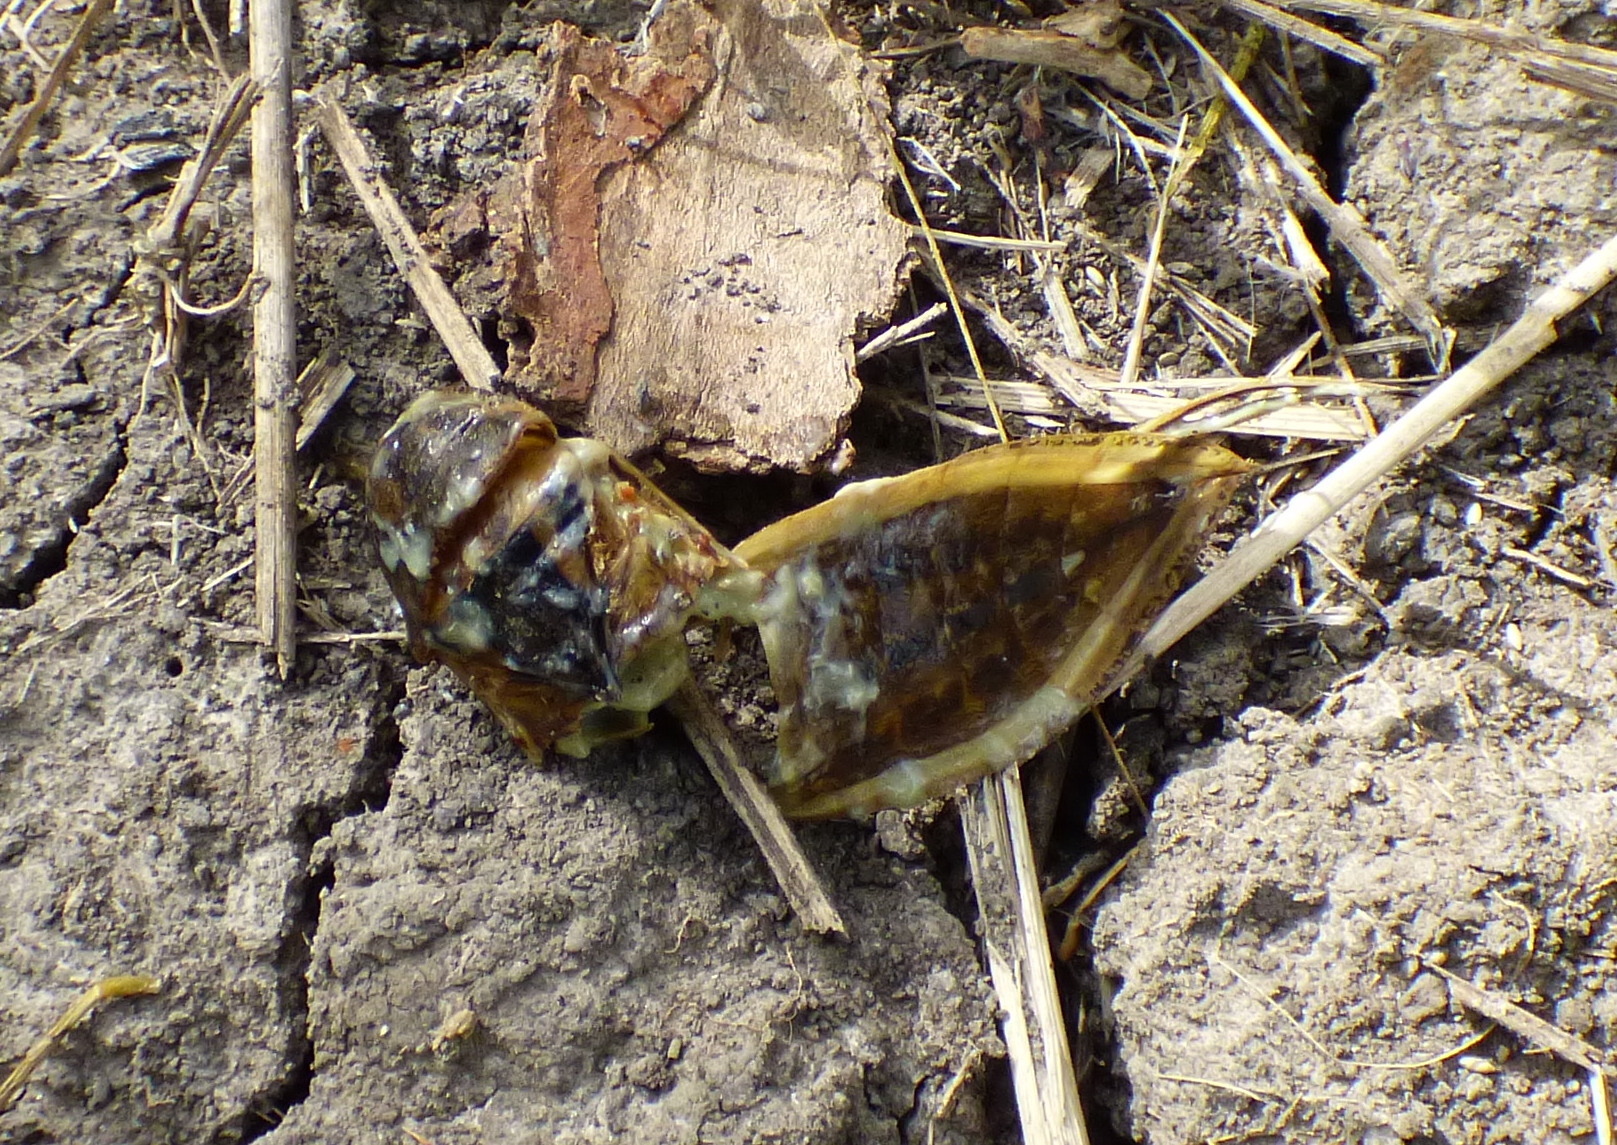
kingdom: Animalia
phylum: Arthropoda
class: Insecta
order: Hemiptera
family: Belostomatidae
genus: Lethocerus
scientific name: Lethocerus annulipes
